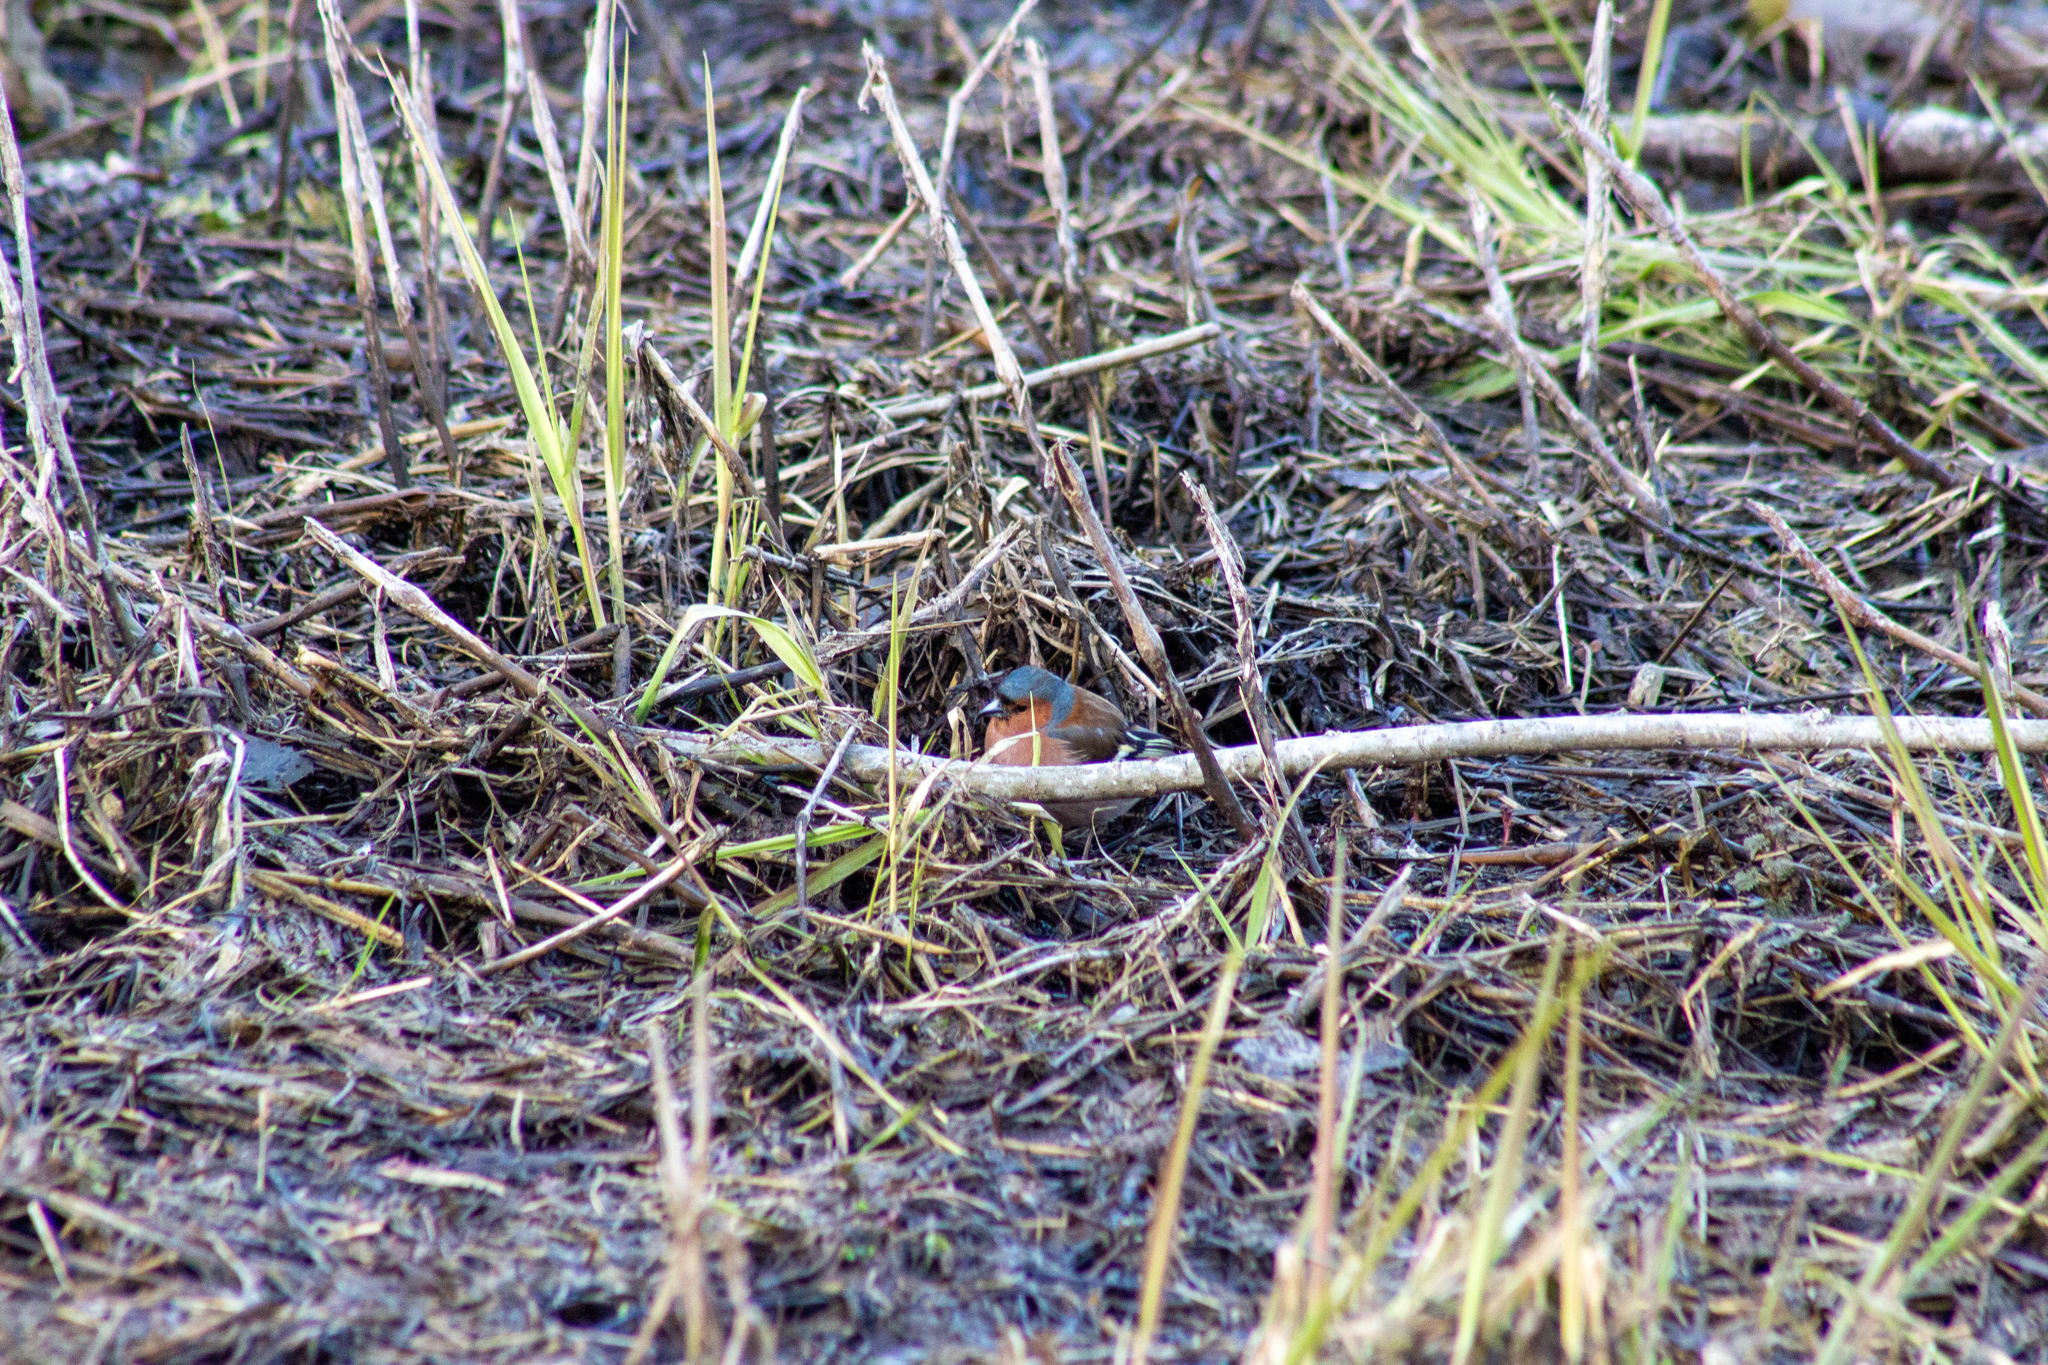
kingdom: Animalia
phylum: Chordata
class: Aves
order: Passeriformes
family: Fringillidae
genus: Fringilla
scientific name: Fringilla coelebs
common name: Common chaffinch
